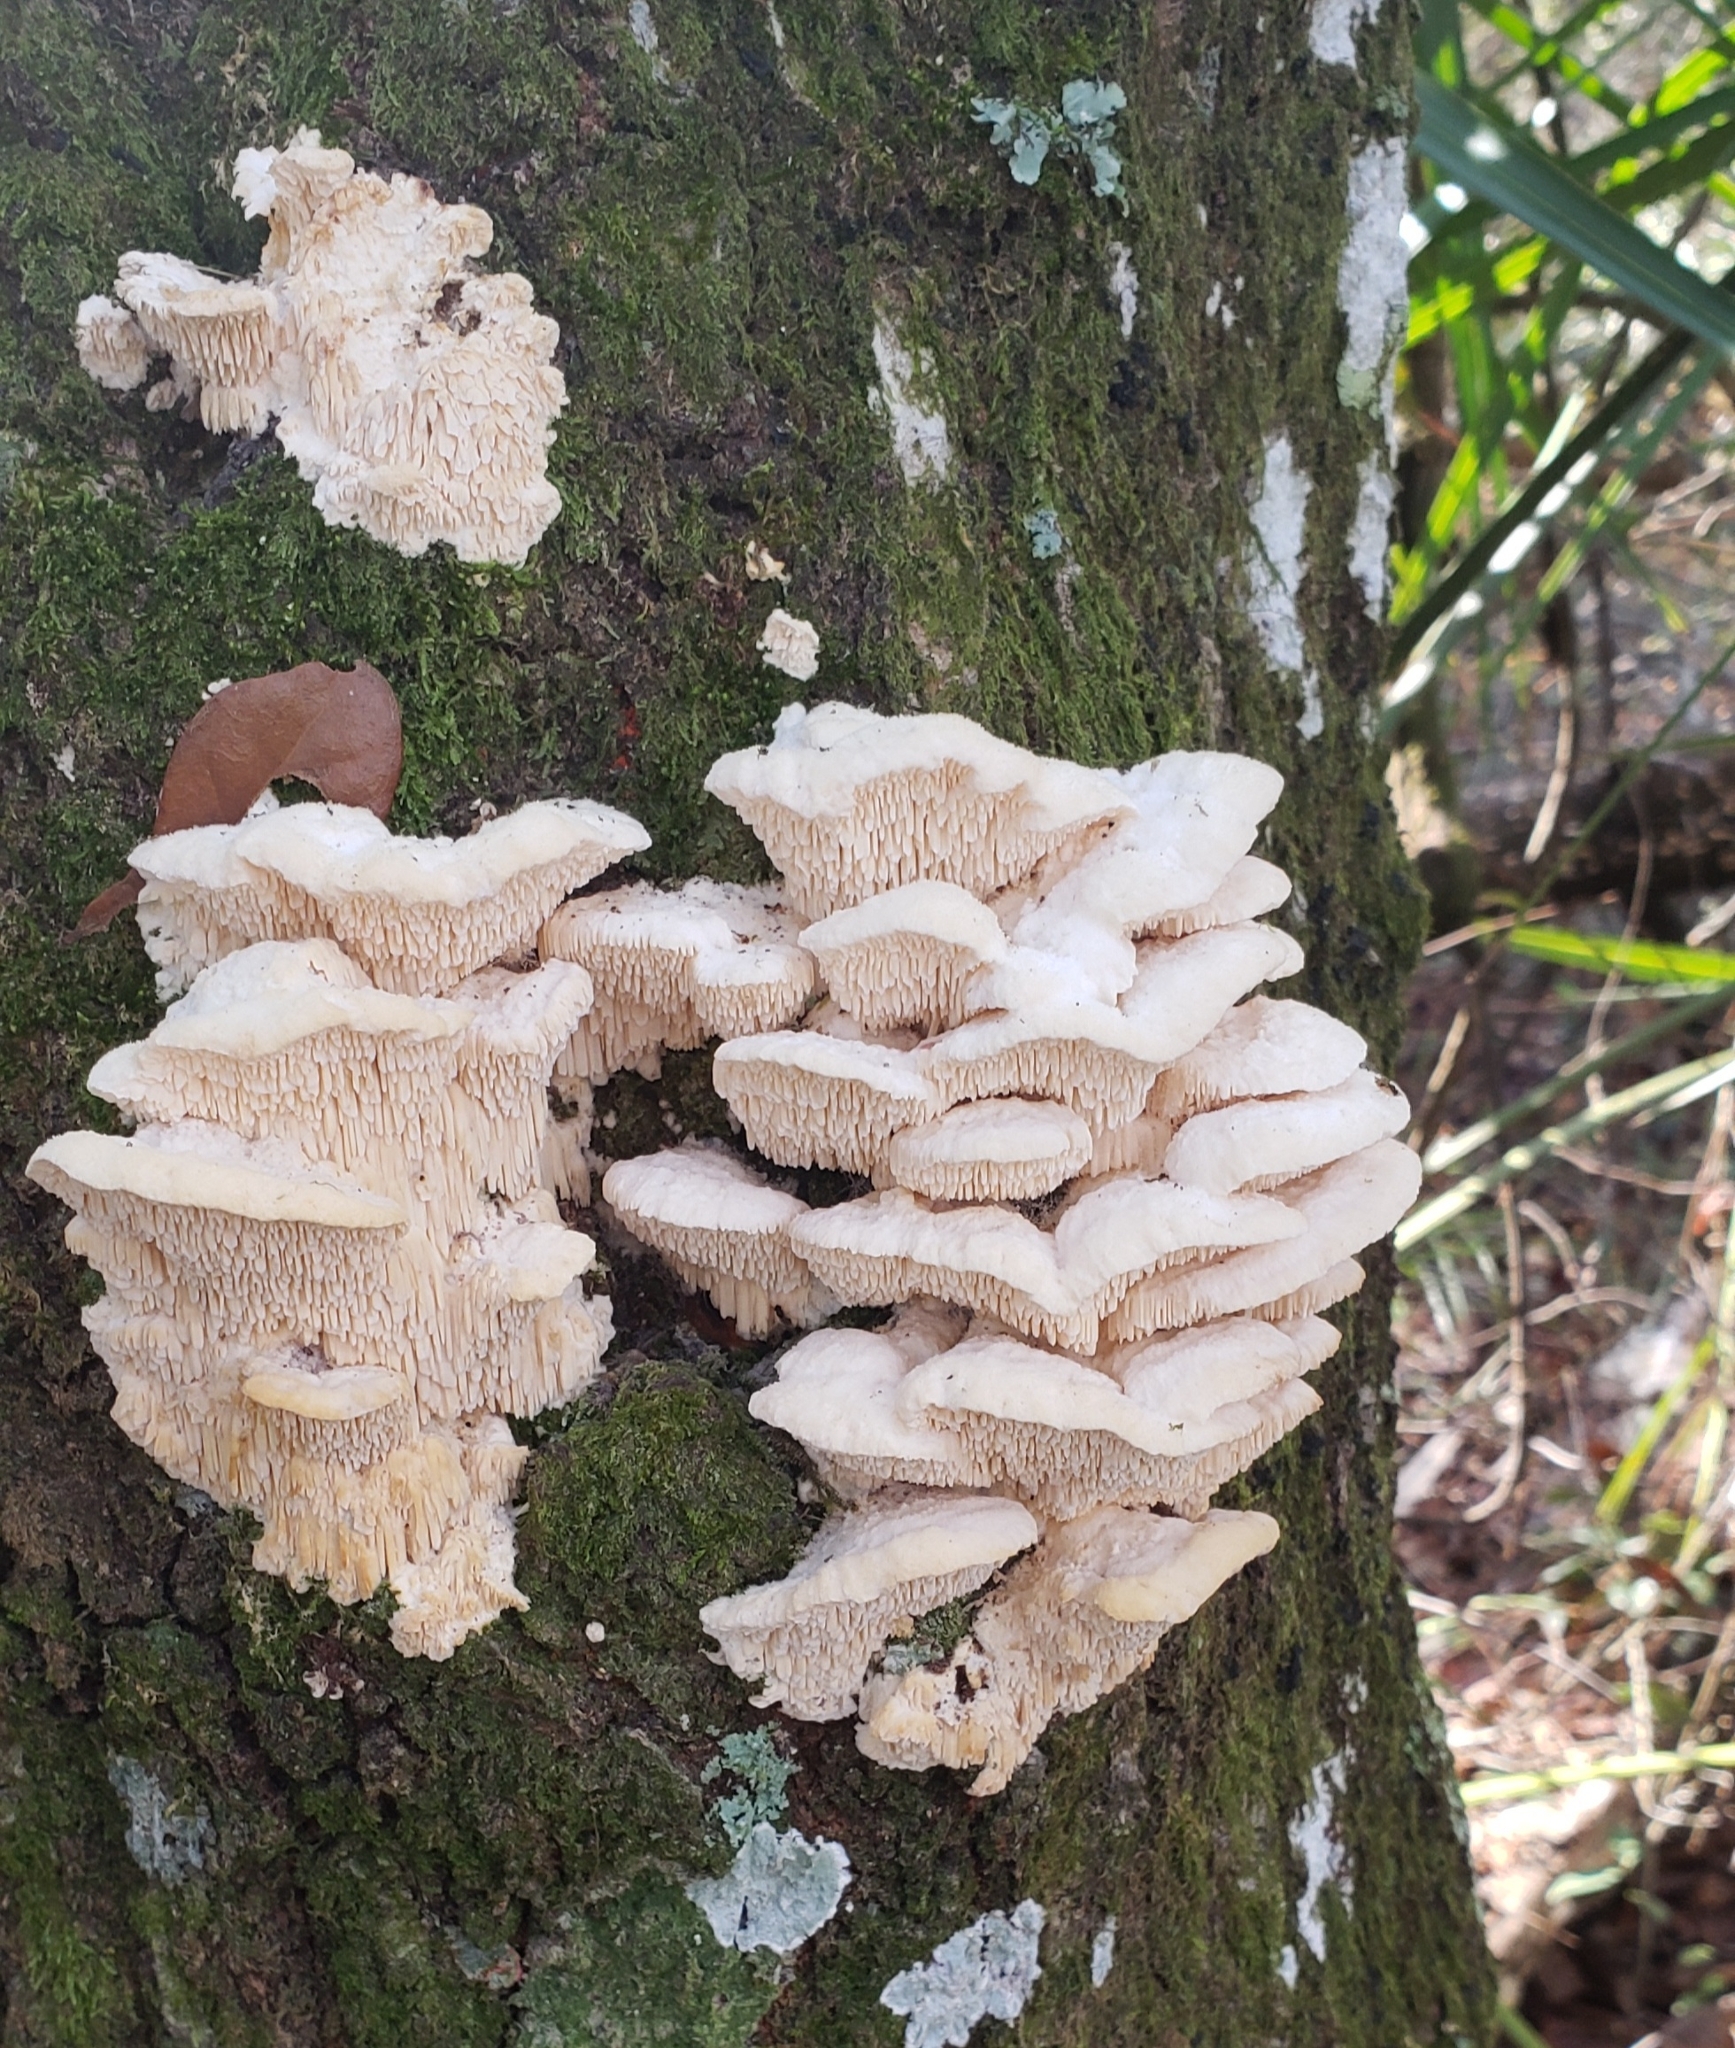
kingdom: Fungi
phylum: Basidiomycota
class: Agaricomycetes
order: Polyporales
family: Meruliaceae
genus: Irpiciporus
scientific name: Irpiciporus pachyodon
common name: Marshmallow polypore
